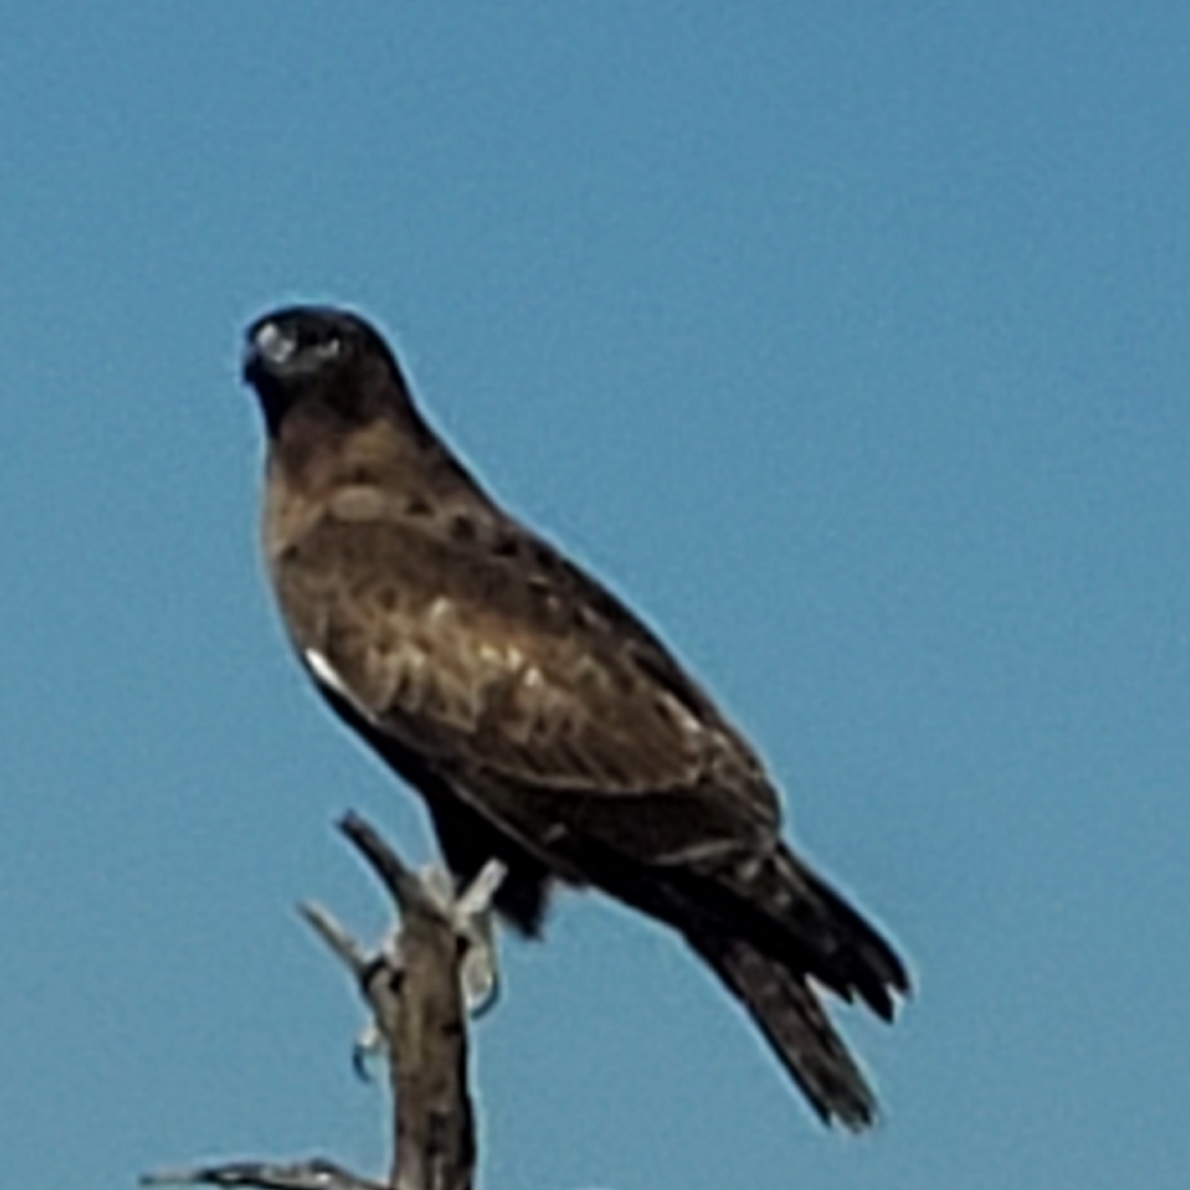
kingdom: Animalia
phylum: Chordata
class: Aves
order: Accipitriformes
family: Accipitridae
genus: Buteo
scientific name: Buteo jamaicensis
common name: Red-tailed hawk
